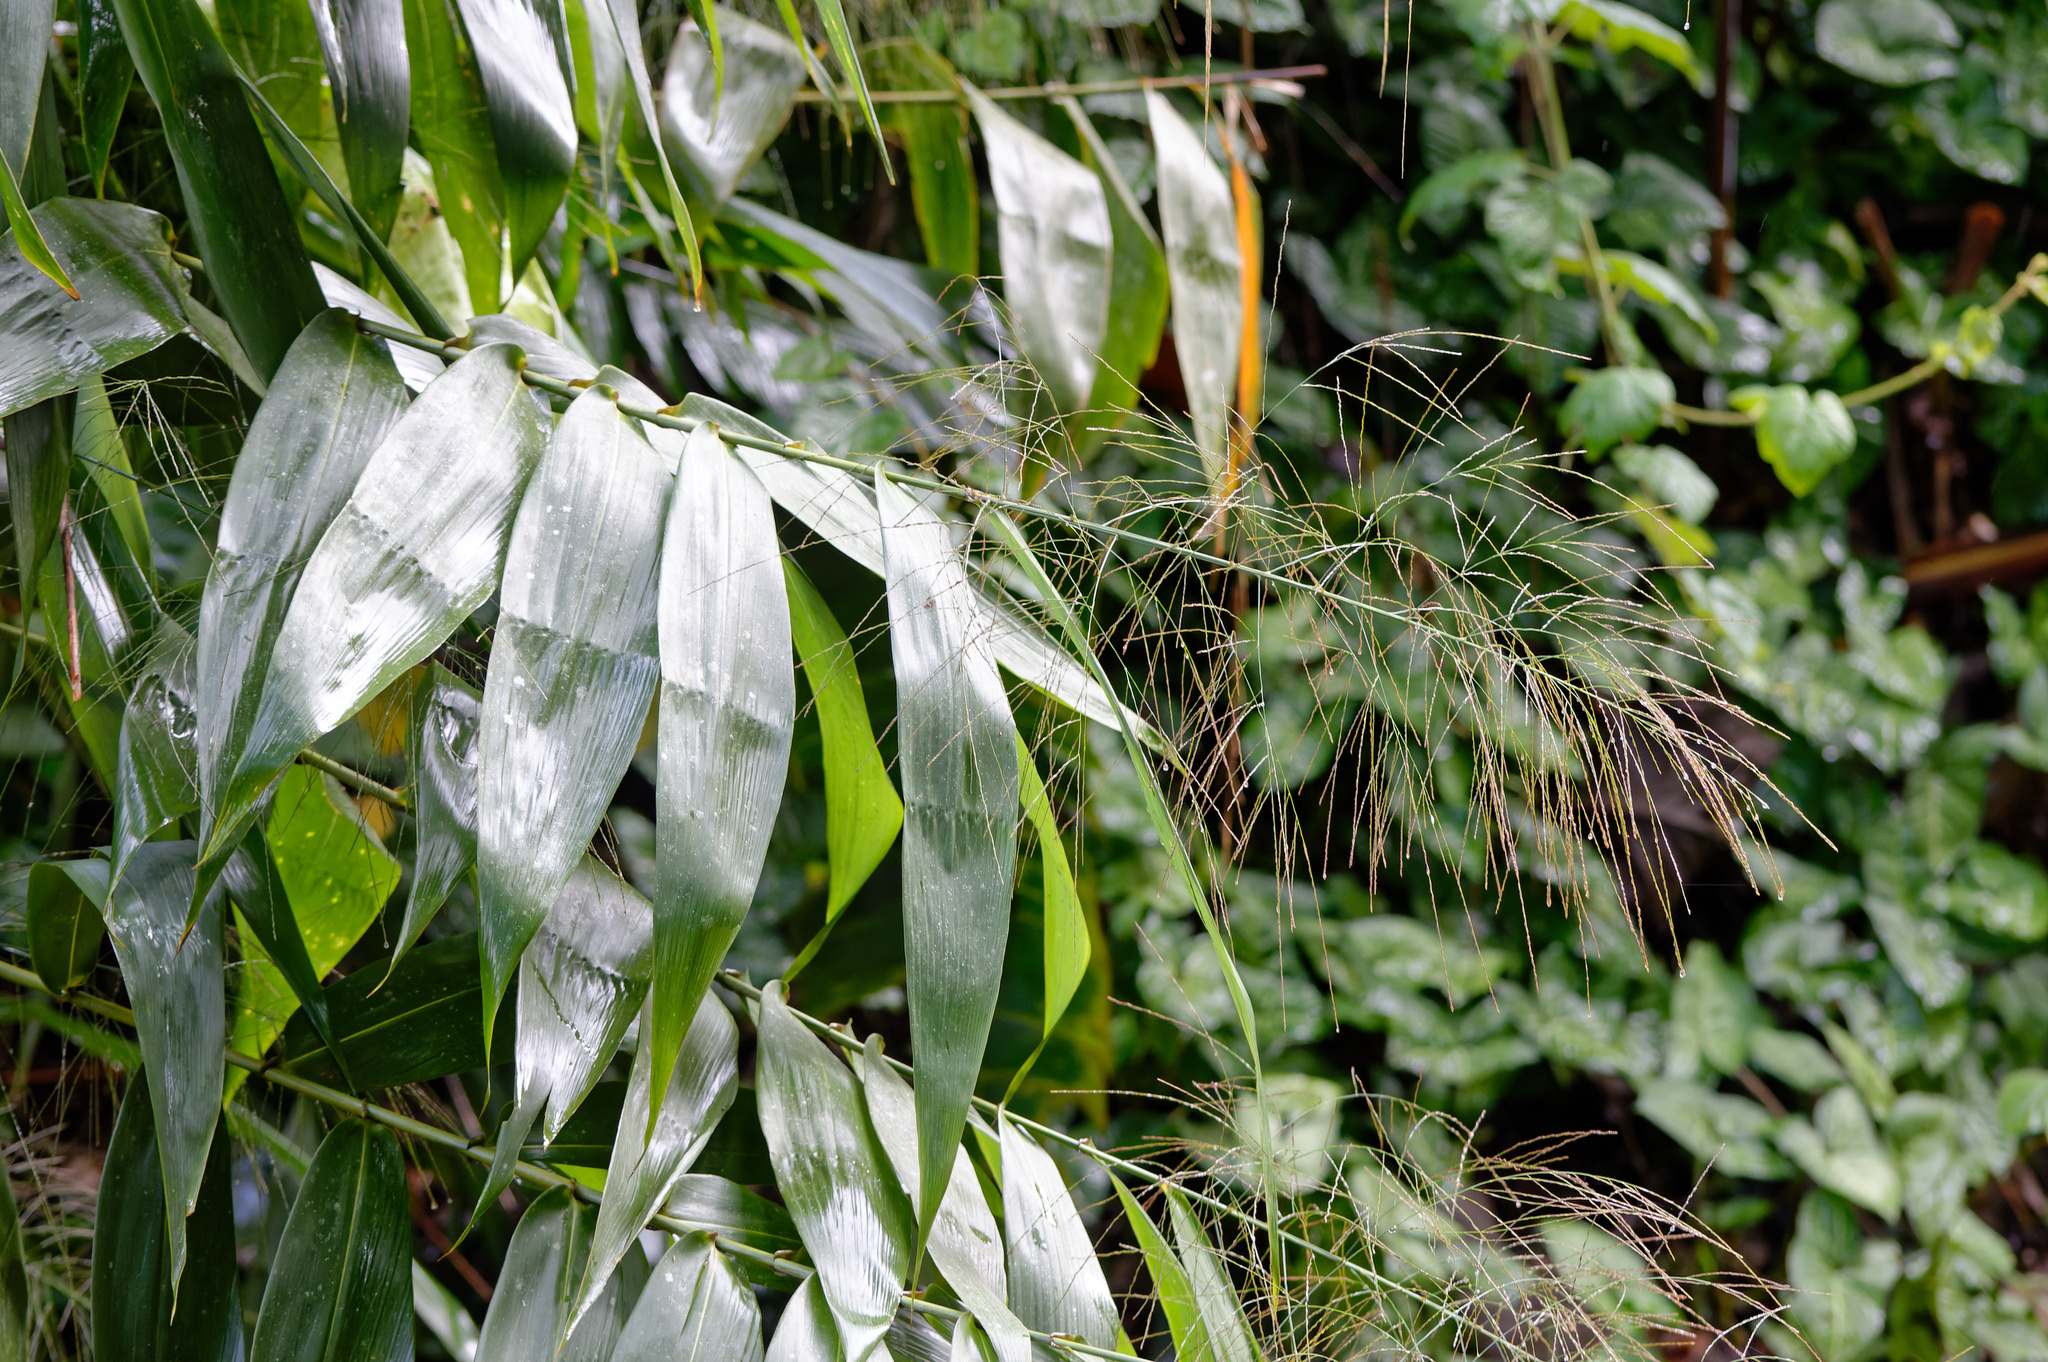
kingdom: Plantae
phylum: Tracheophyta
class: Liliopsida
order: Poales
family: Poaceae
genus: Thysanolaena
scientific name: Thysanolaena latifolia
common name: Tiger grass
